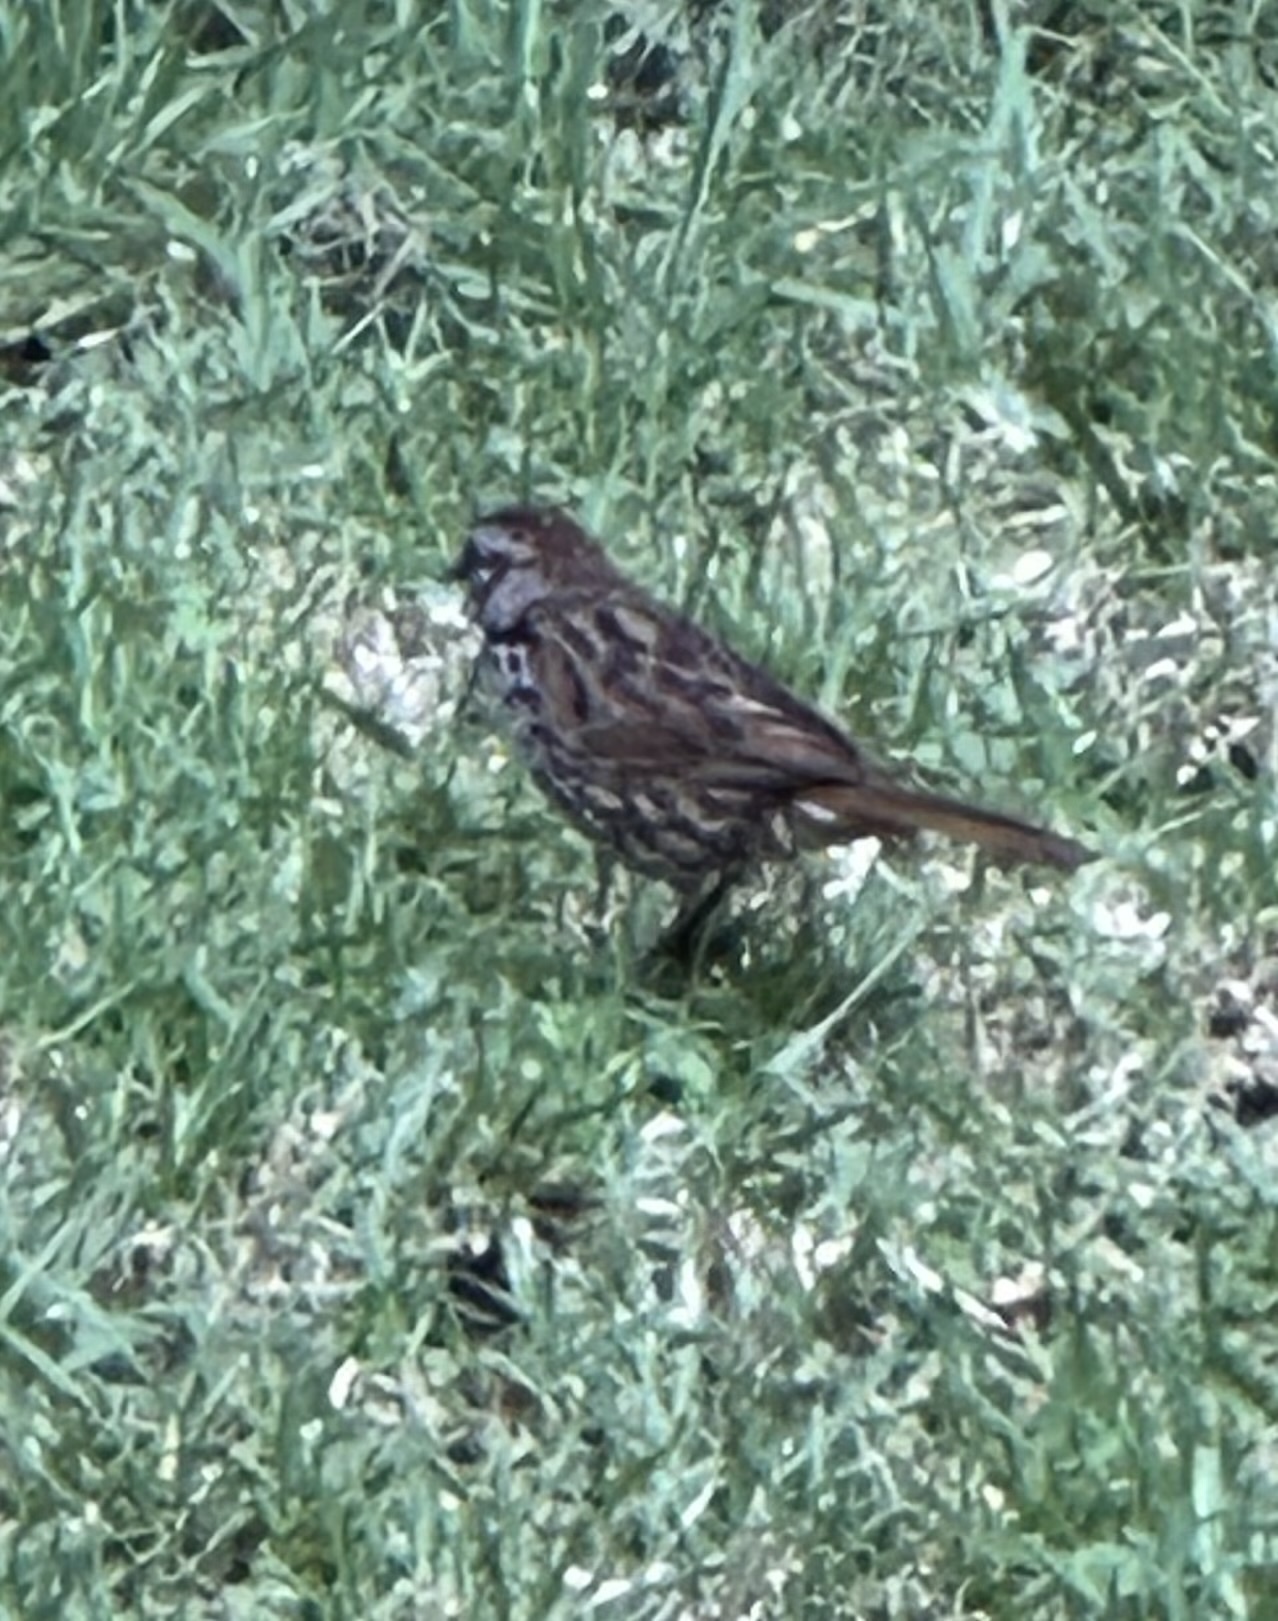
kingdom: Animalia
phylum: Chordata
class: Aves
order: Passeriformes
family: Passerellidae
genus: Melospiza
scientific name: Melospiza melodia
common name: Song sparrow
